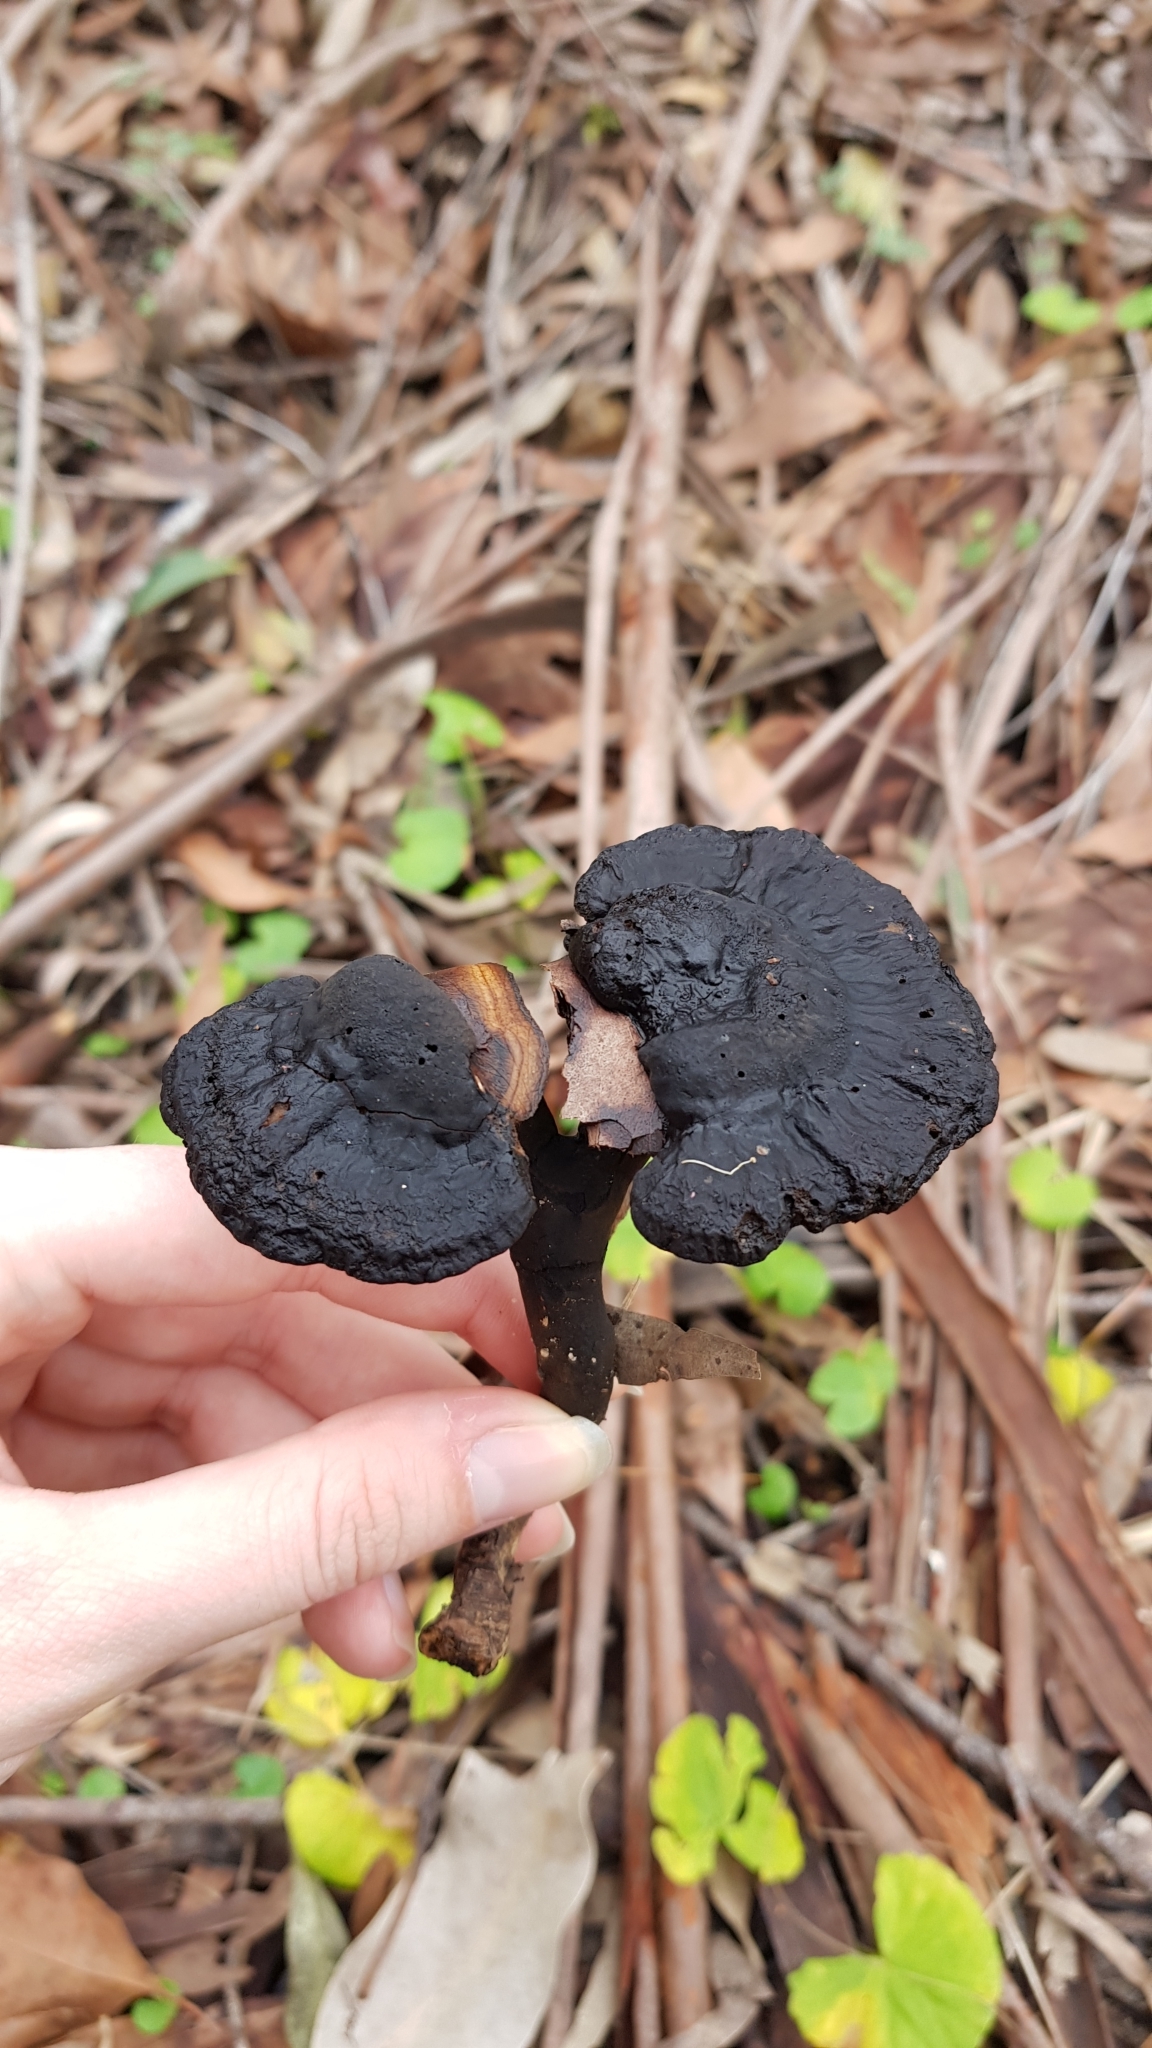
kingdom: Fungi
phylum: Basidiomycota
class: Agaricomycetes
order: Polyporales
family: Ganodermataceae
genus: Sanguinoderma
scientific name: Sanguinoderma rude
